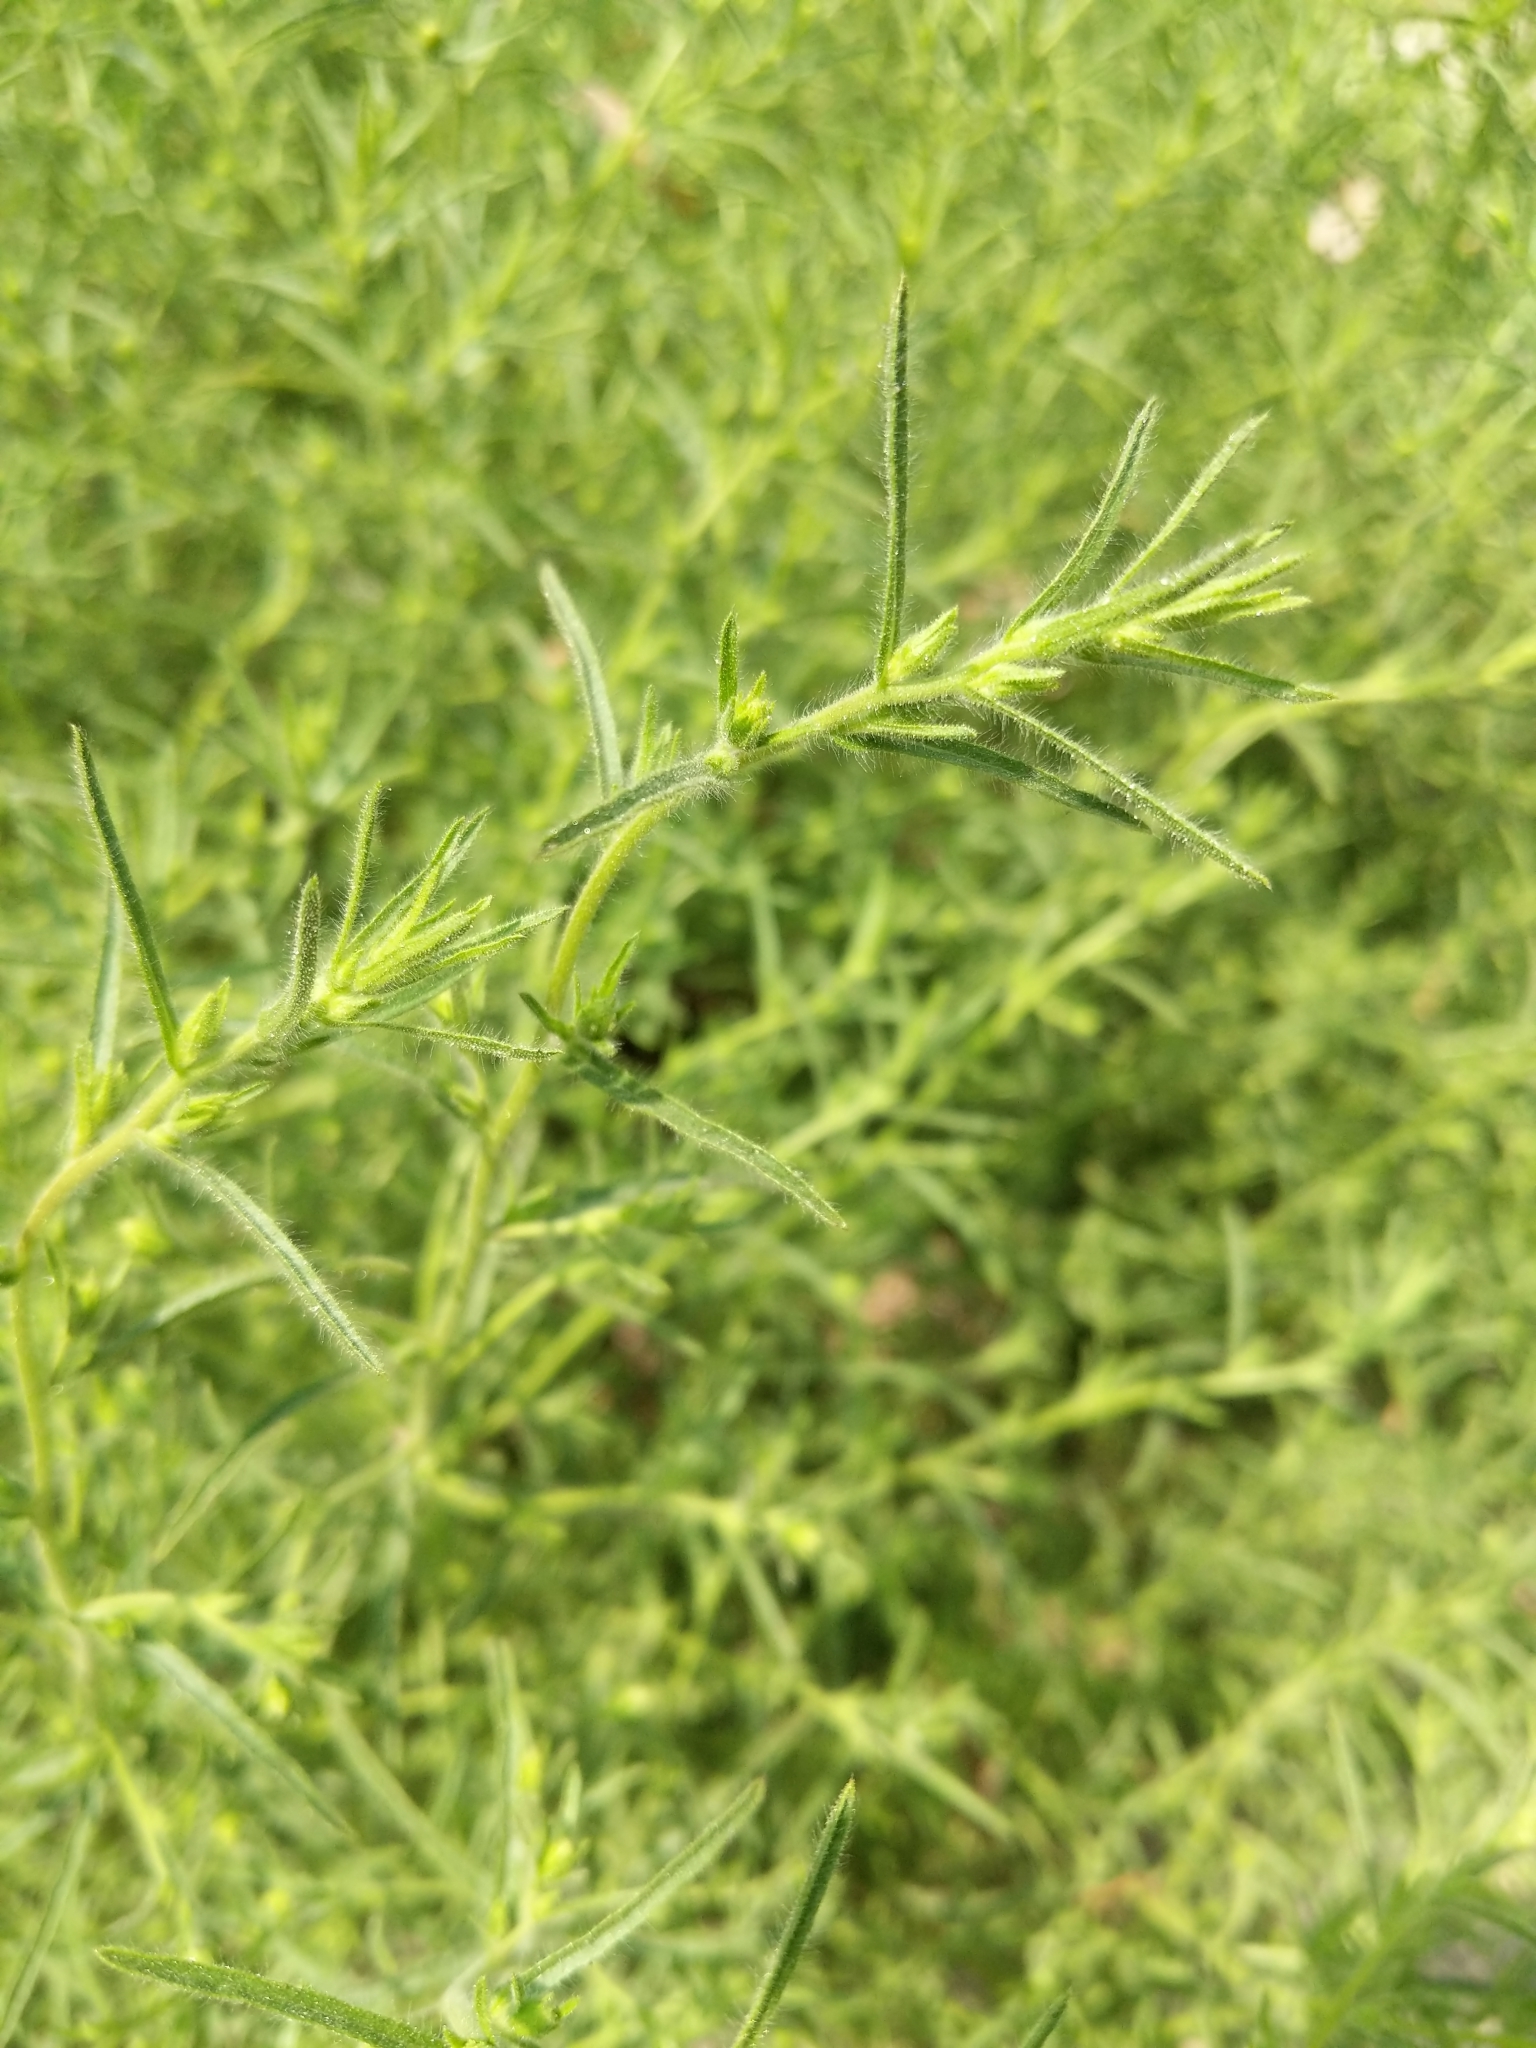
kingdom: Plantae
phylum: Tracheophyta
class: Magnoliopsida
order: Asterales
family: Asteraceae
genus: Dittrichia
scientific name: Dittrichia graveolens
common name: Stinking fleabane
